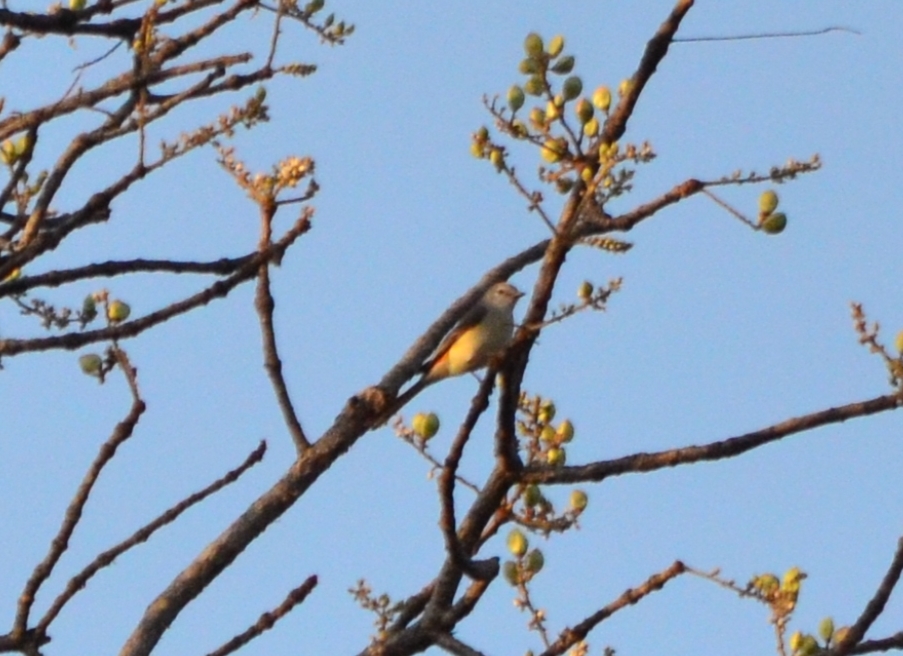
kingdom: Animalia
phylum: Chordata
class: Aves
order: Passeriformes
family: Campephagidae
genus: Pericrocotus
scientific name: Pericrocotus cinnamomeus
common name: Small minivet
